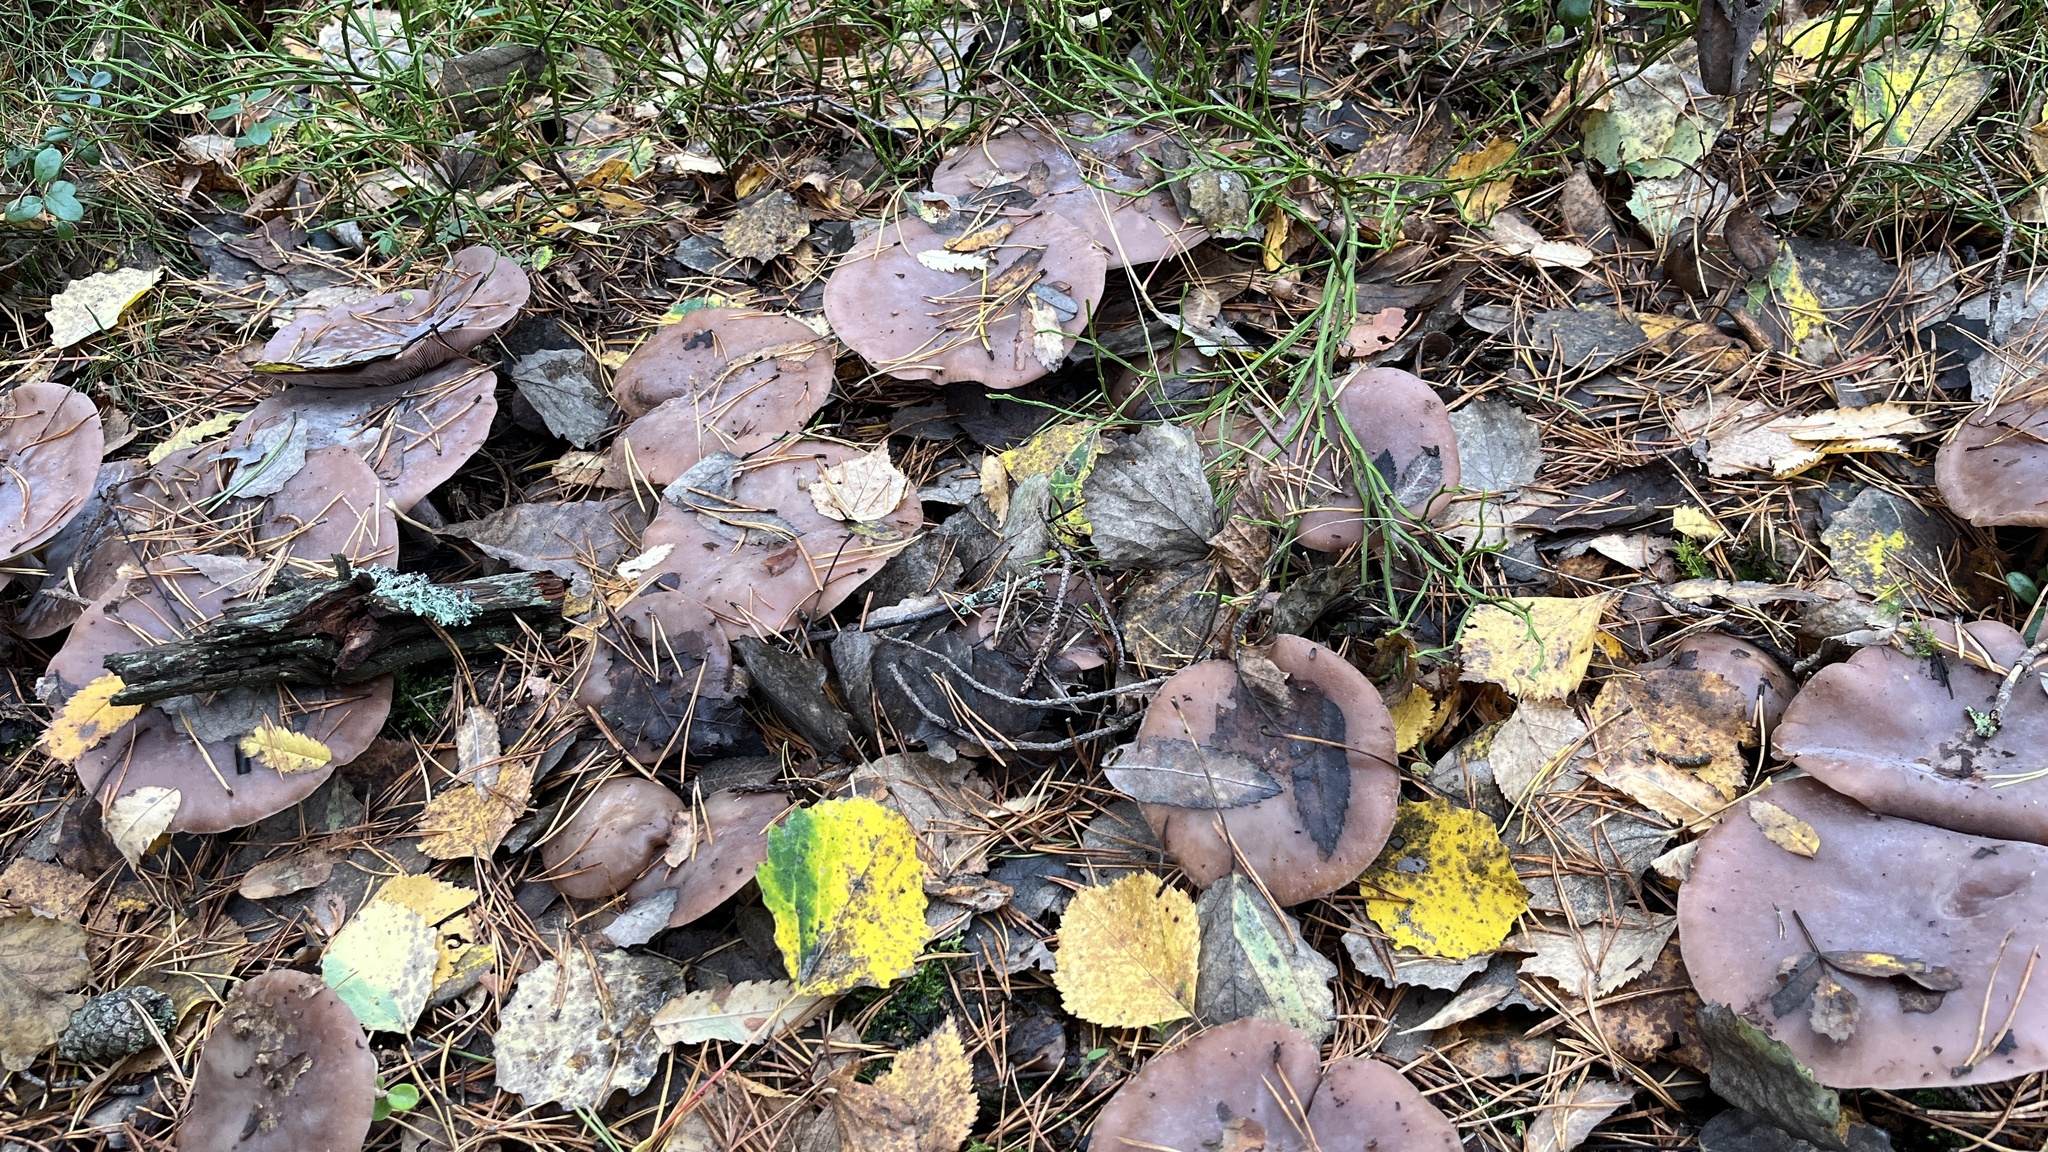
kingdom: Fungi
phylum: Basidiomycota
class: Agaricomycetes
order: Agaricales
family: Tricholomataceae
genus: Collybia
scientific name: Collybia
